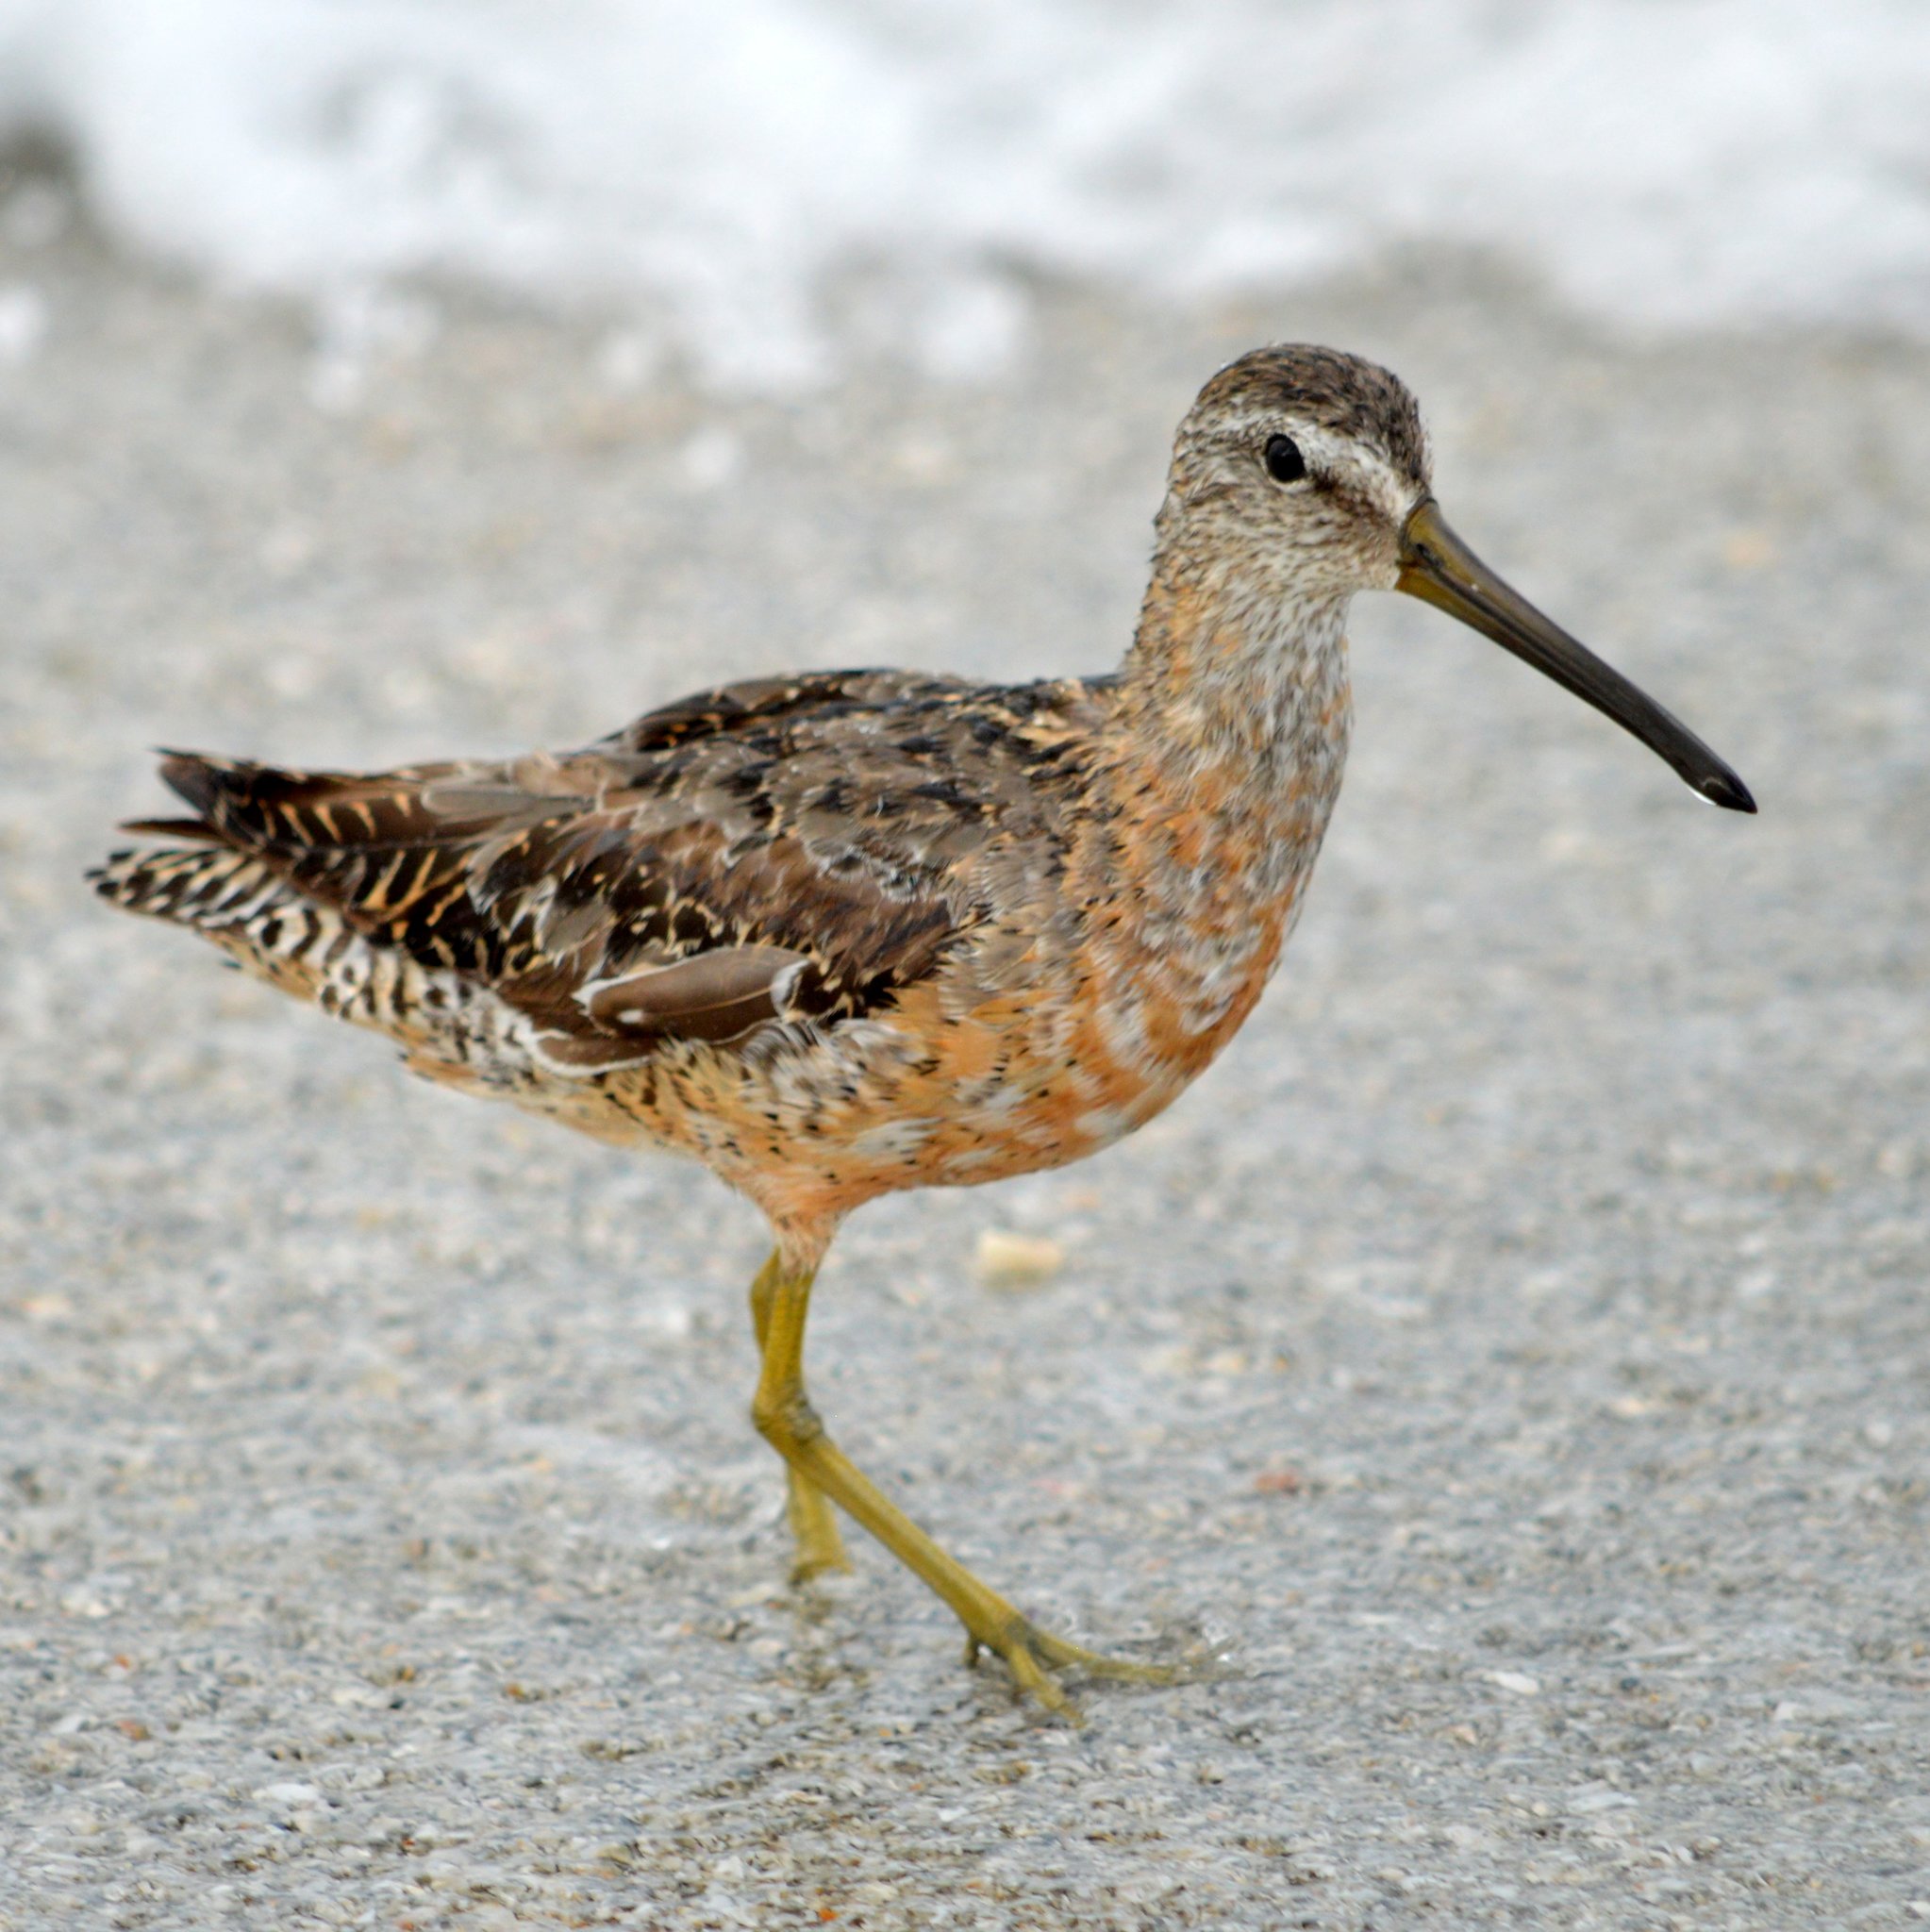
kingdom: Animalia
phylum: Chordata
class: Aves
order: Charadriiformes
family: Scolopacidae
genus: Limnodromus
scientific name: Limnodromus griseus
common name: Short-billed dowitcher
